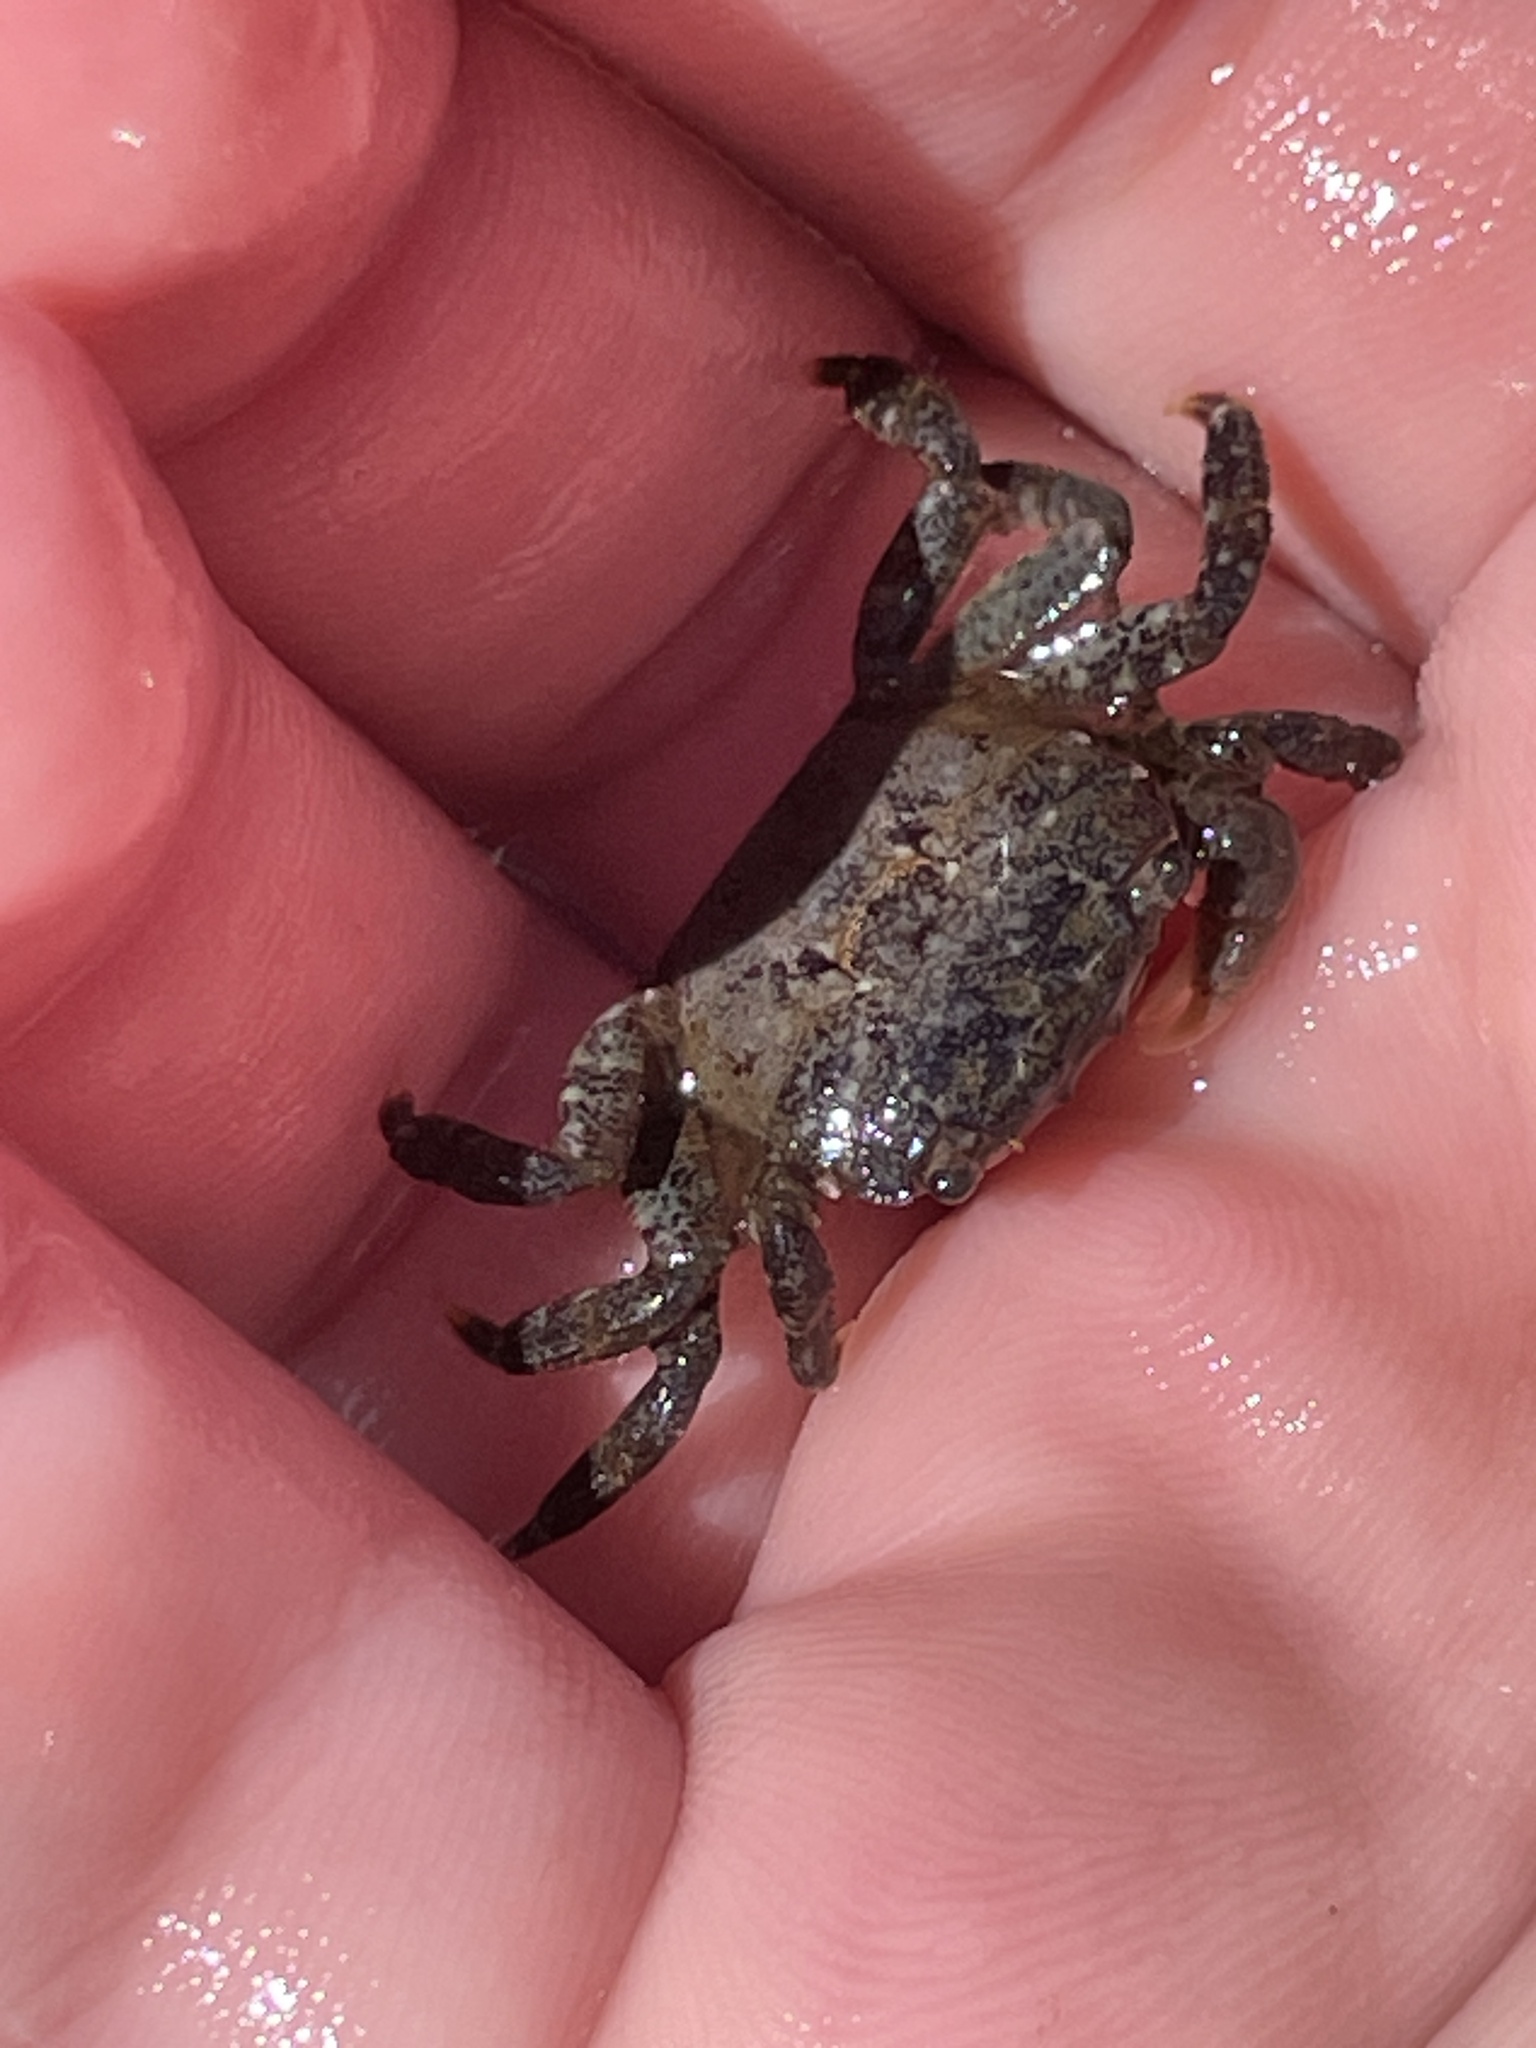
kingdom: Animalia
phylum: Arthropoda
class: Malacostraca
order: Decapoda
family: Varunidae
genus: Hemigrapsus
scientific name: Hemigrapsus oregonensis
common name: Yellow shore crab
